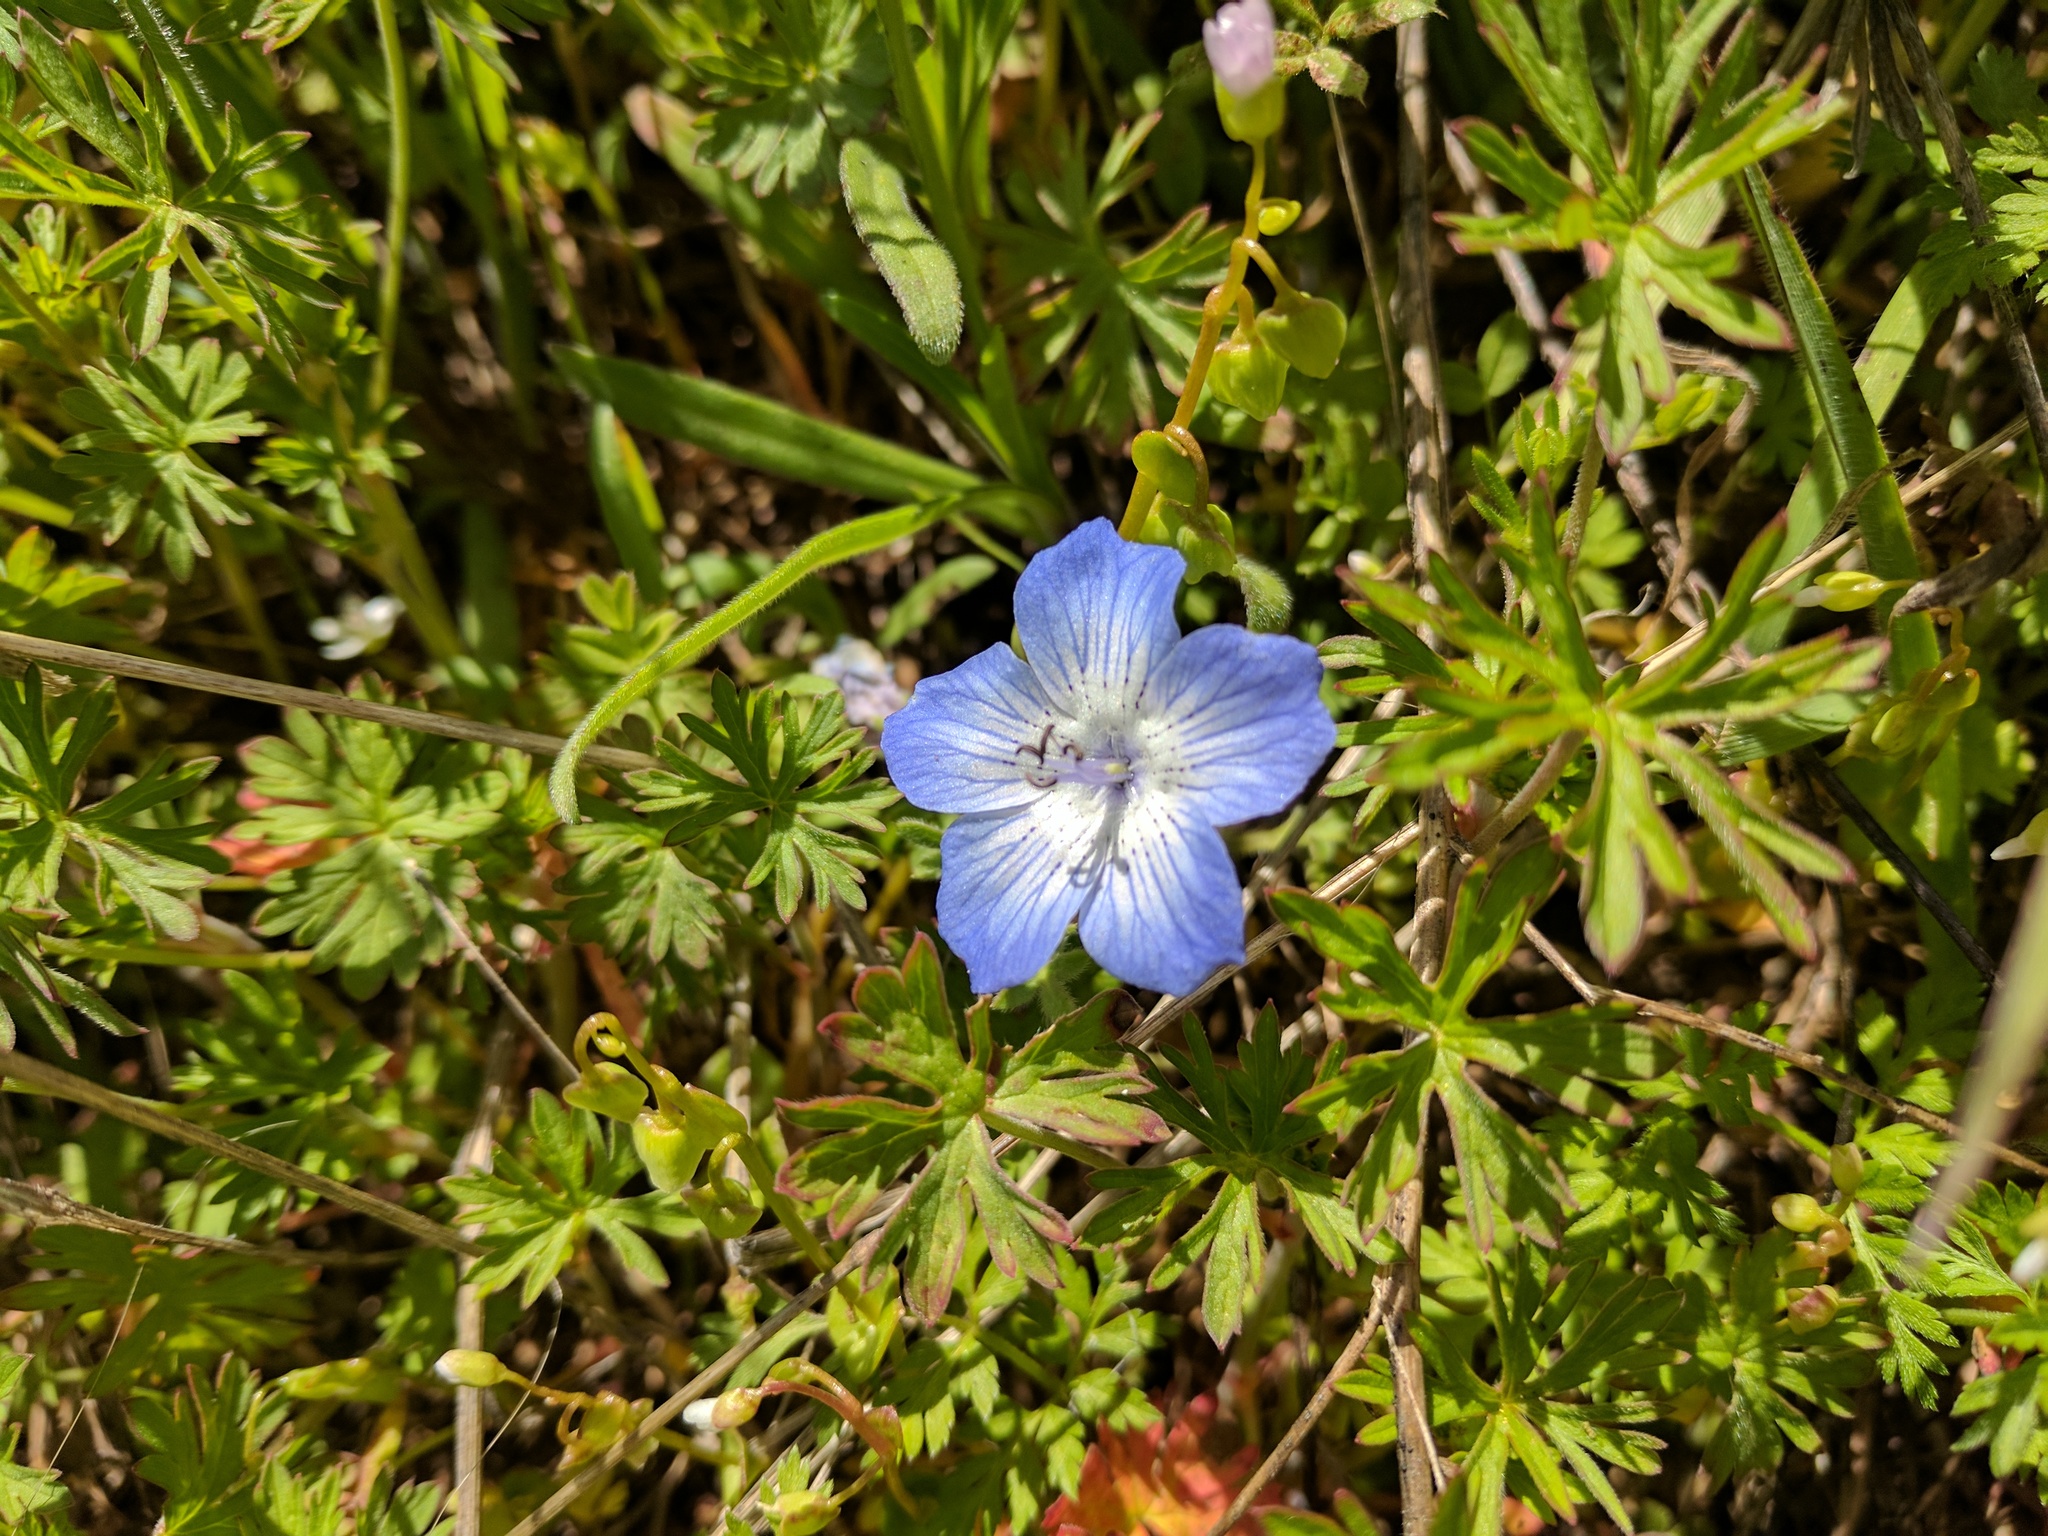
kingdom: Plantae
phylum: Tracheophyta
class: Magnoliopsida
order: Boraginales
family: Hydrophyllaceae
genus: Nemophila
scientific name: Nemophila menziesii
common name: Baby's-blue-eyes
